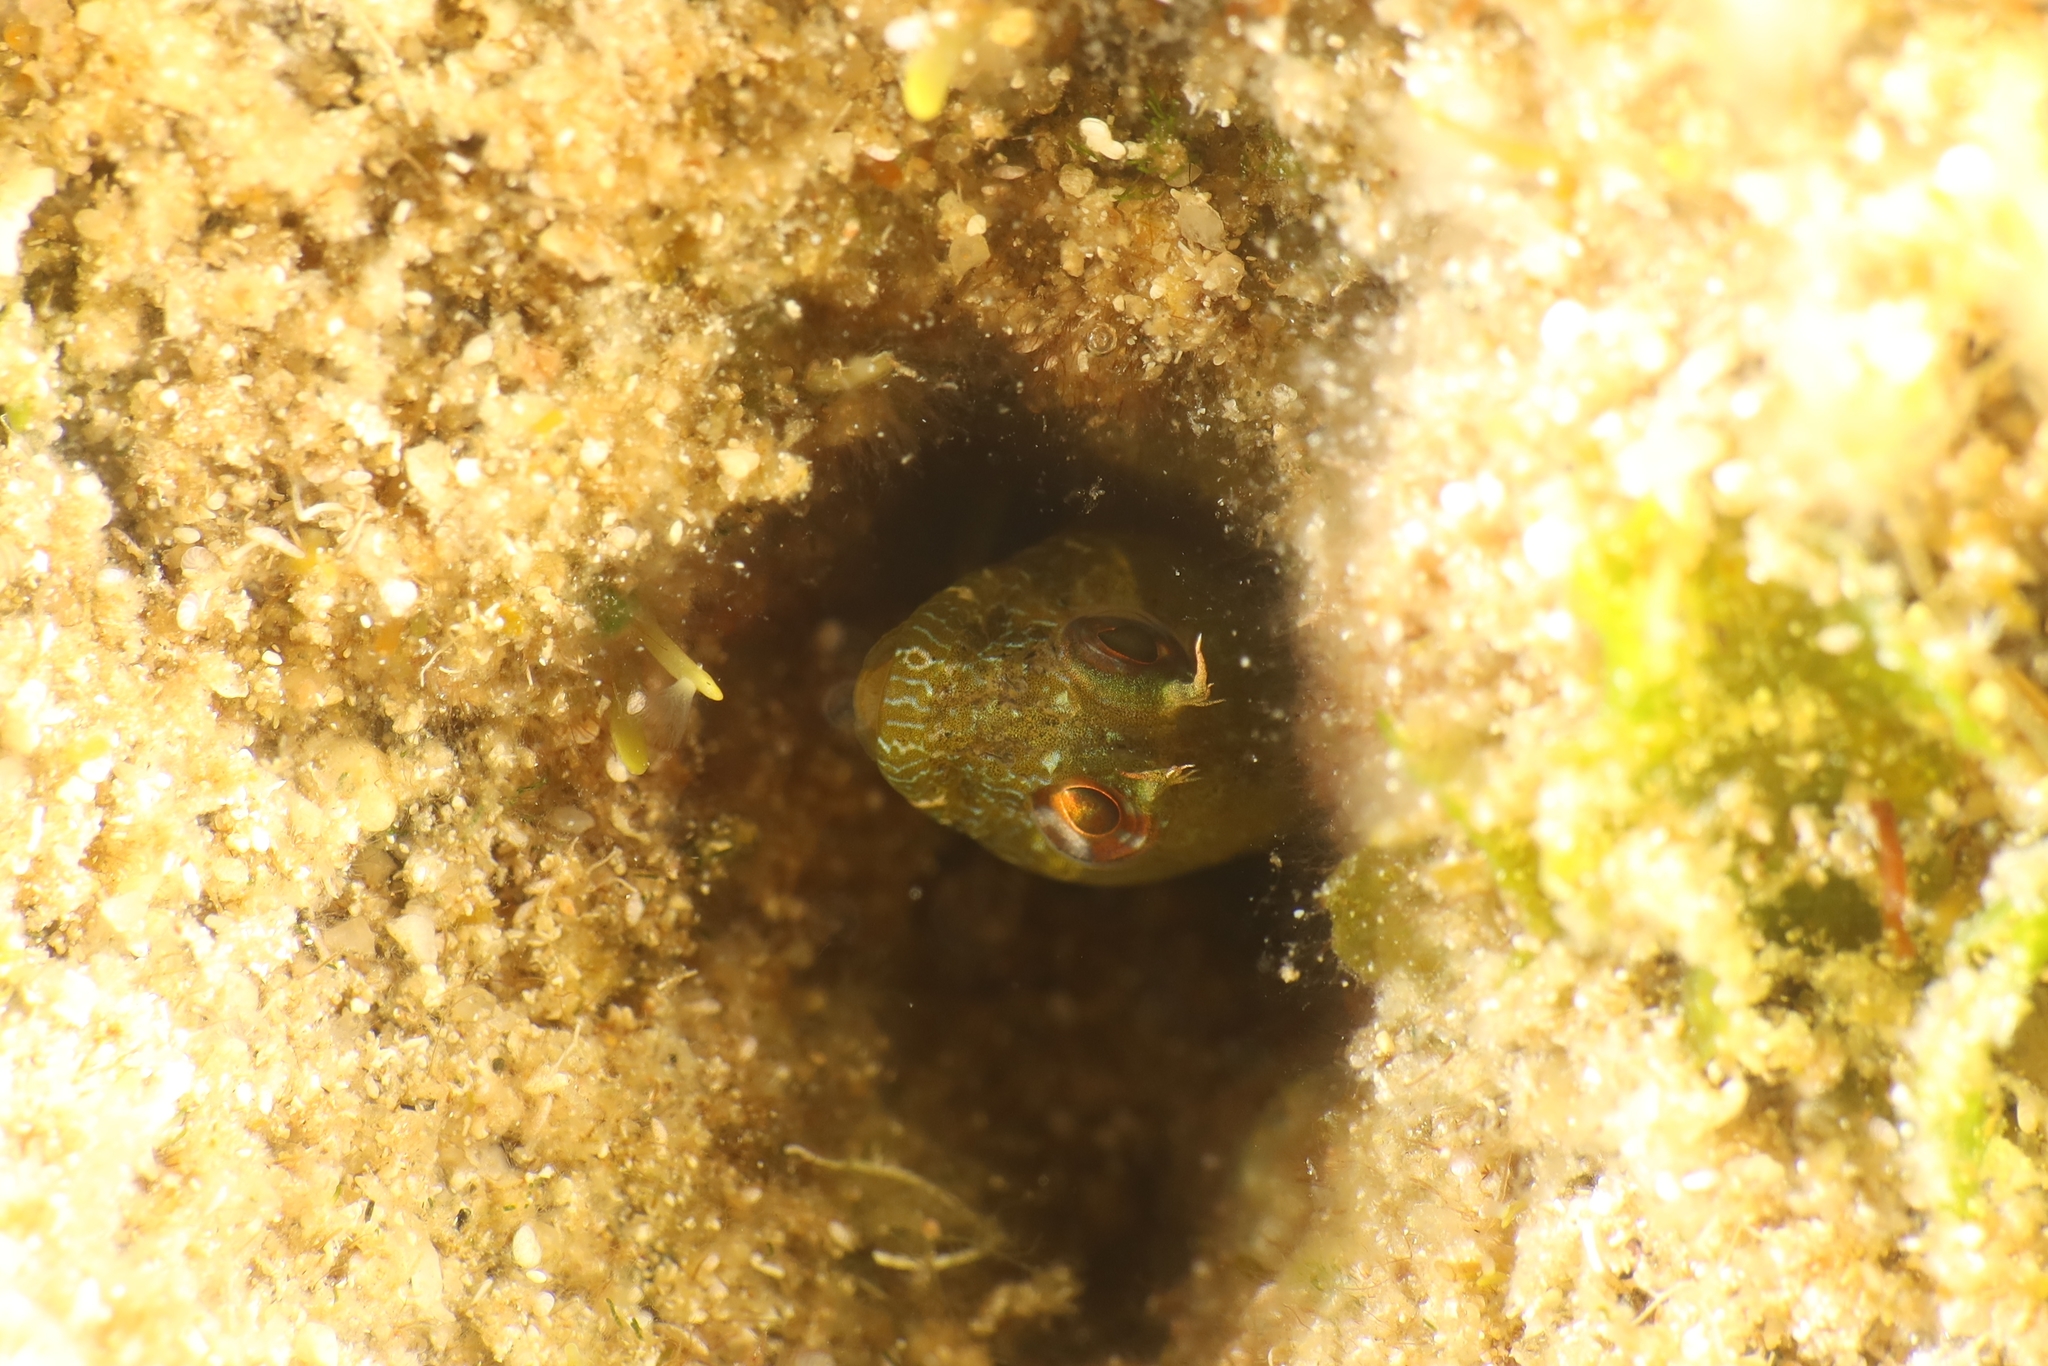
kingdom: Animalia
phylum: Chordata
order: Perciformes
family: Blenniidae
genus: Parablennius
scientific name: Parablennius incognitus
